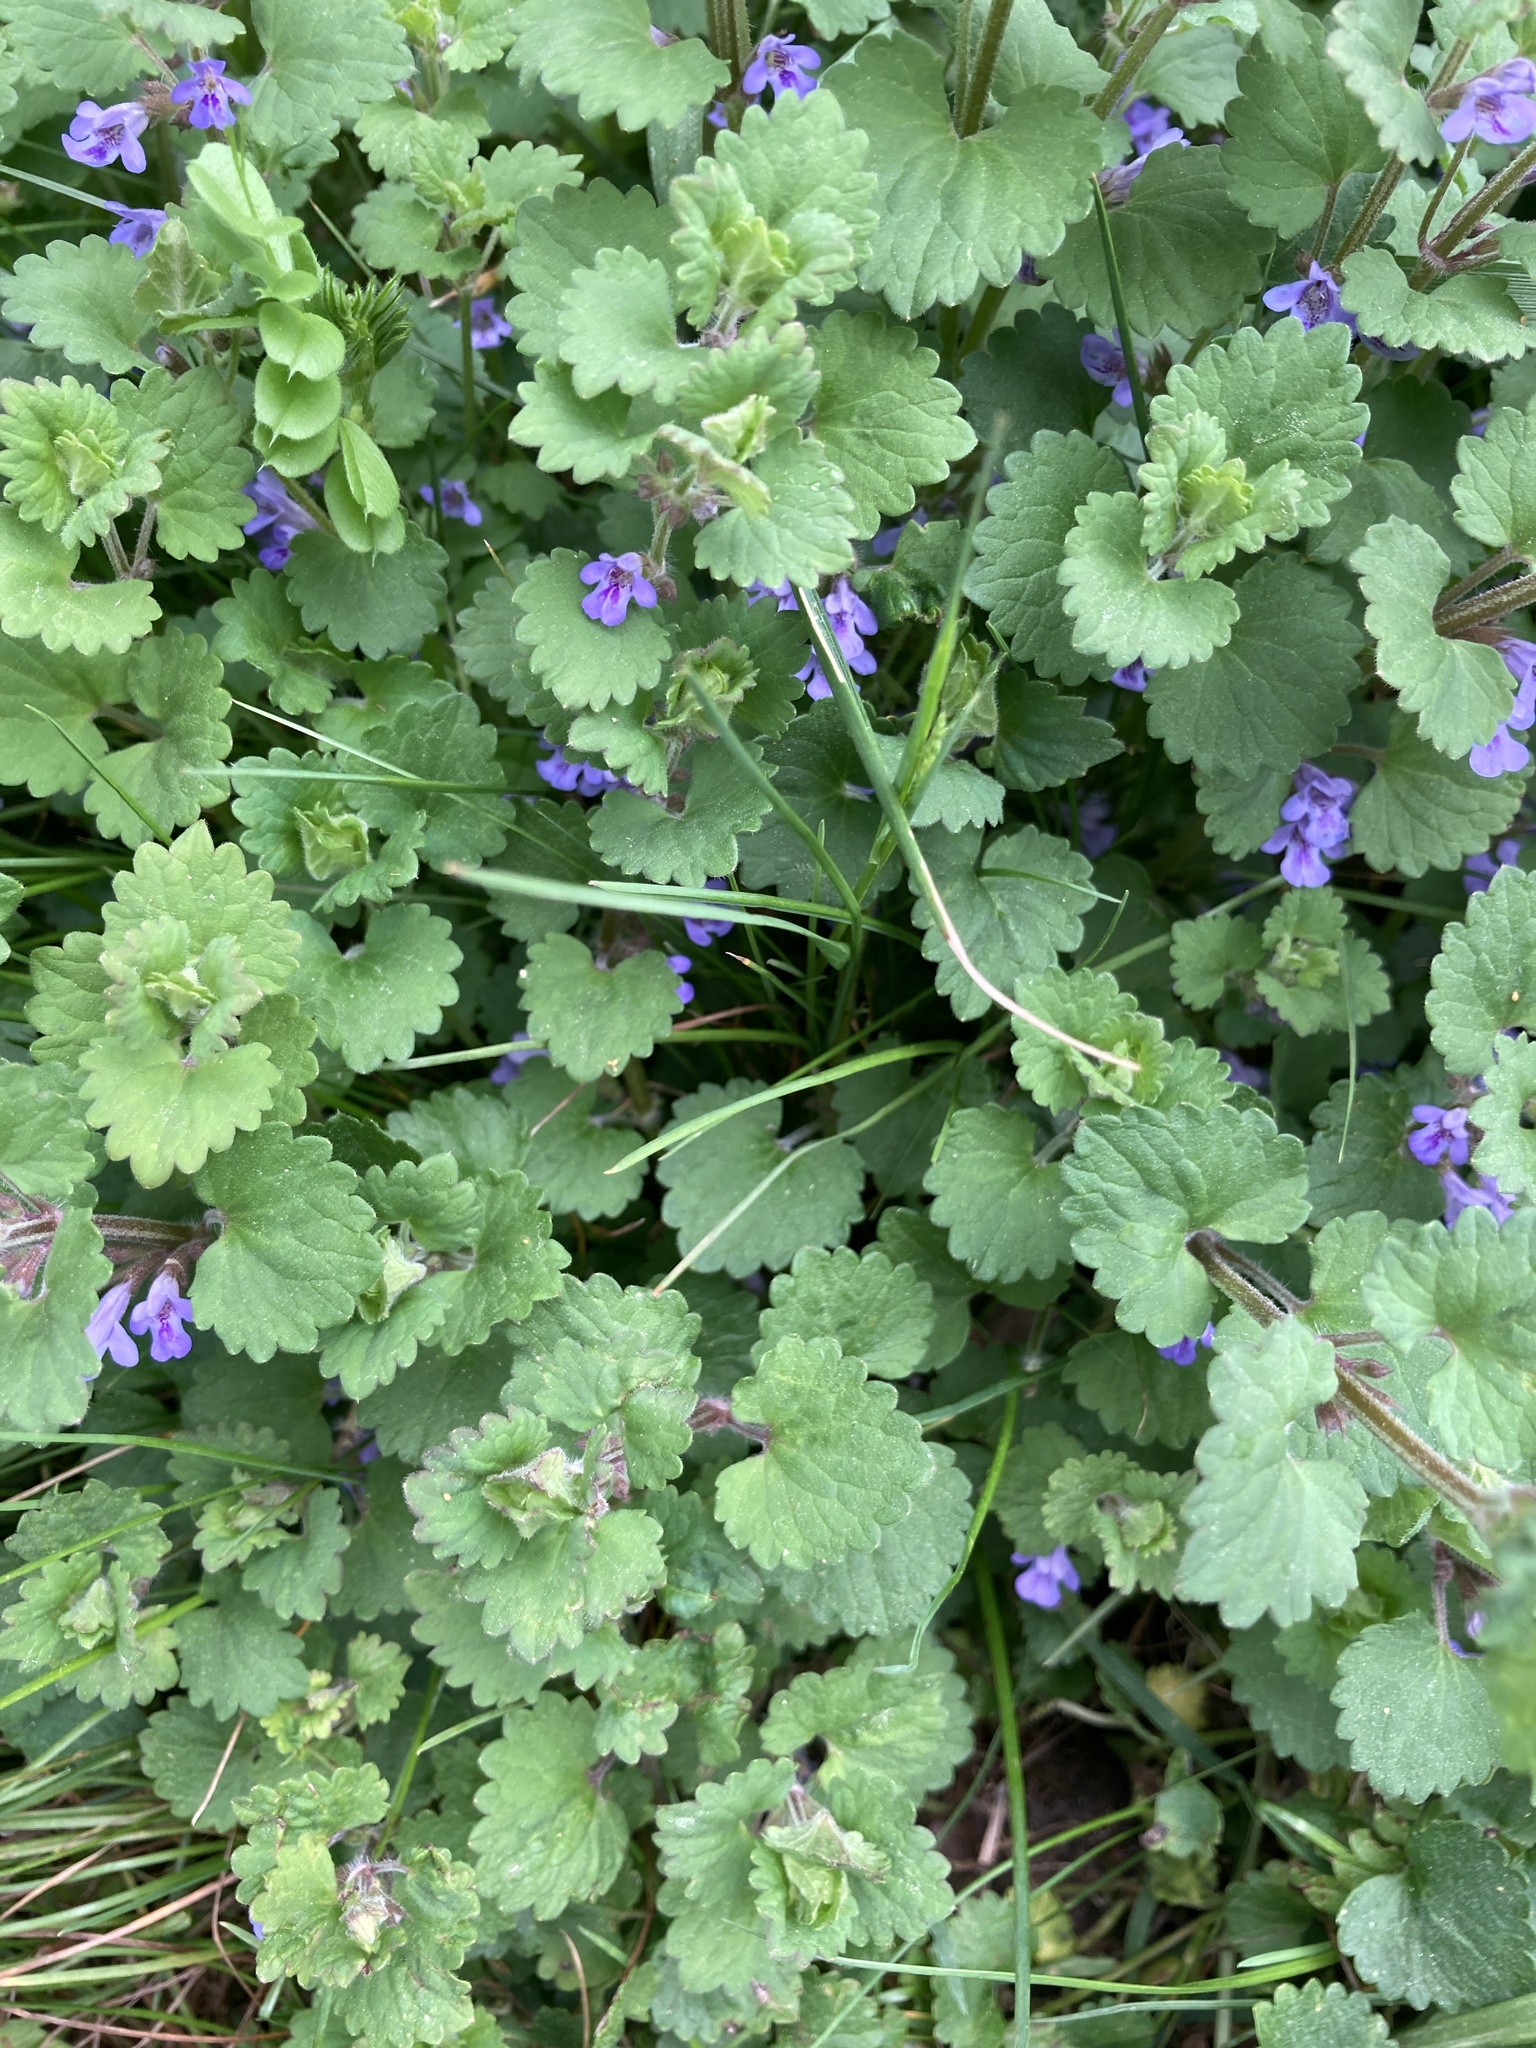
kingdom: Plantae
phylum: Tracheophyta
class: Magnoliopsida
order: Lamiales
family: Lamiaceae
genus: Glechoma
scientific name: Glechoma hederacea
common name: Ground ivy
